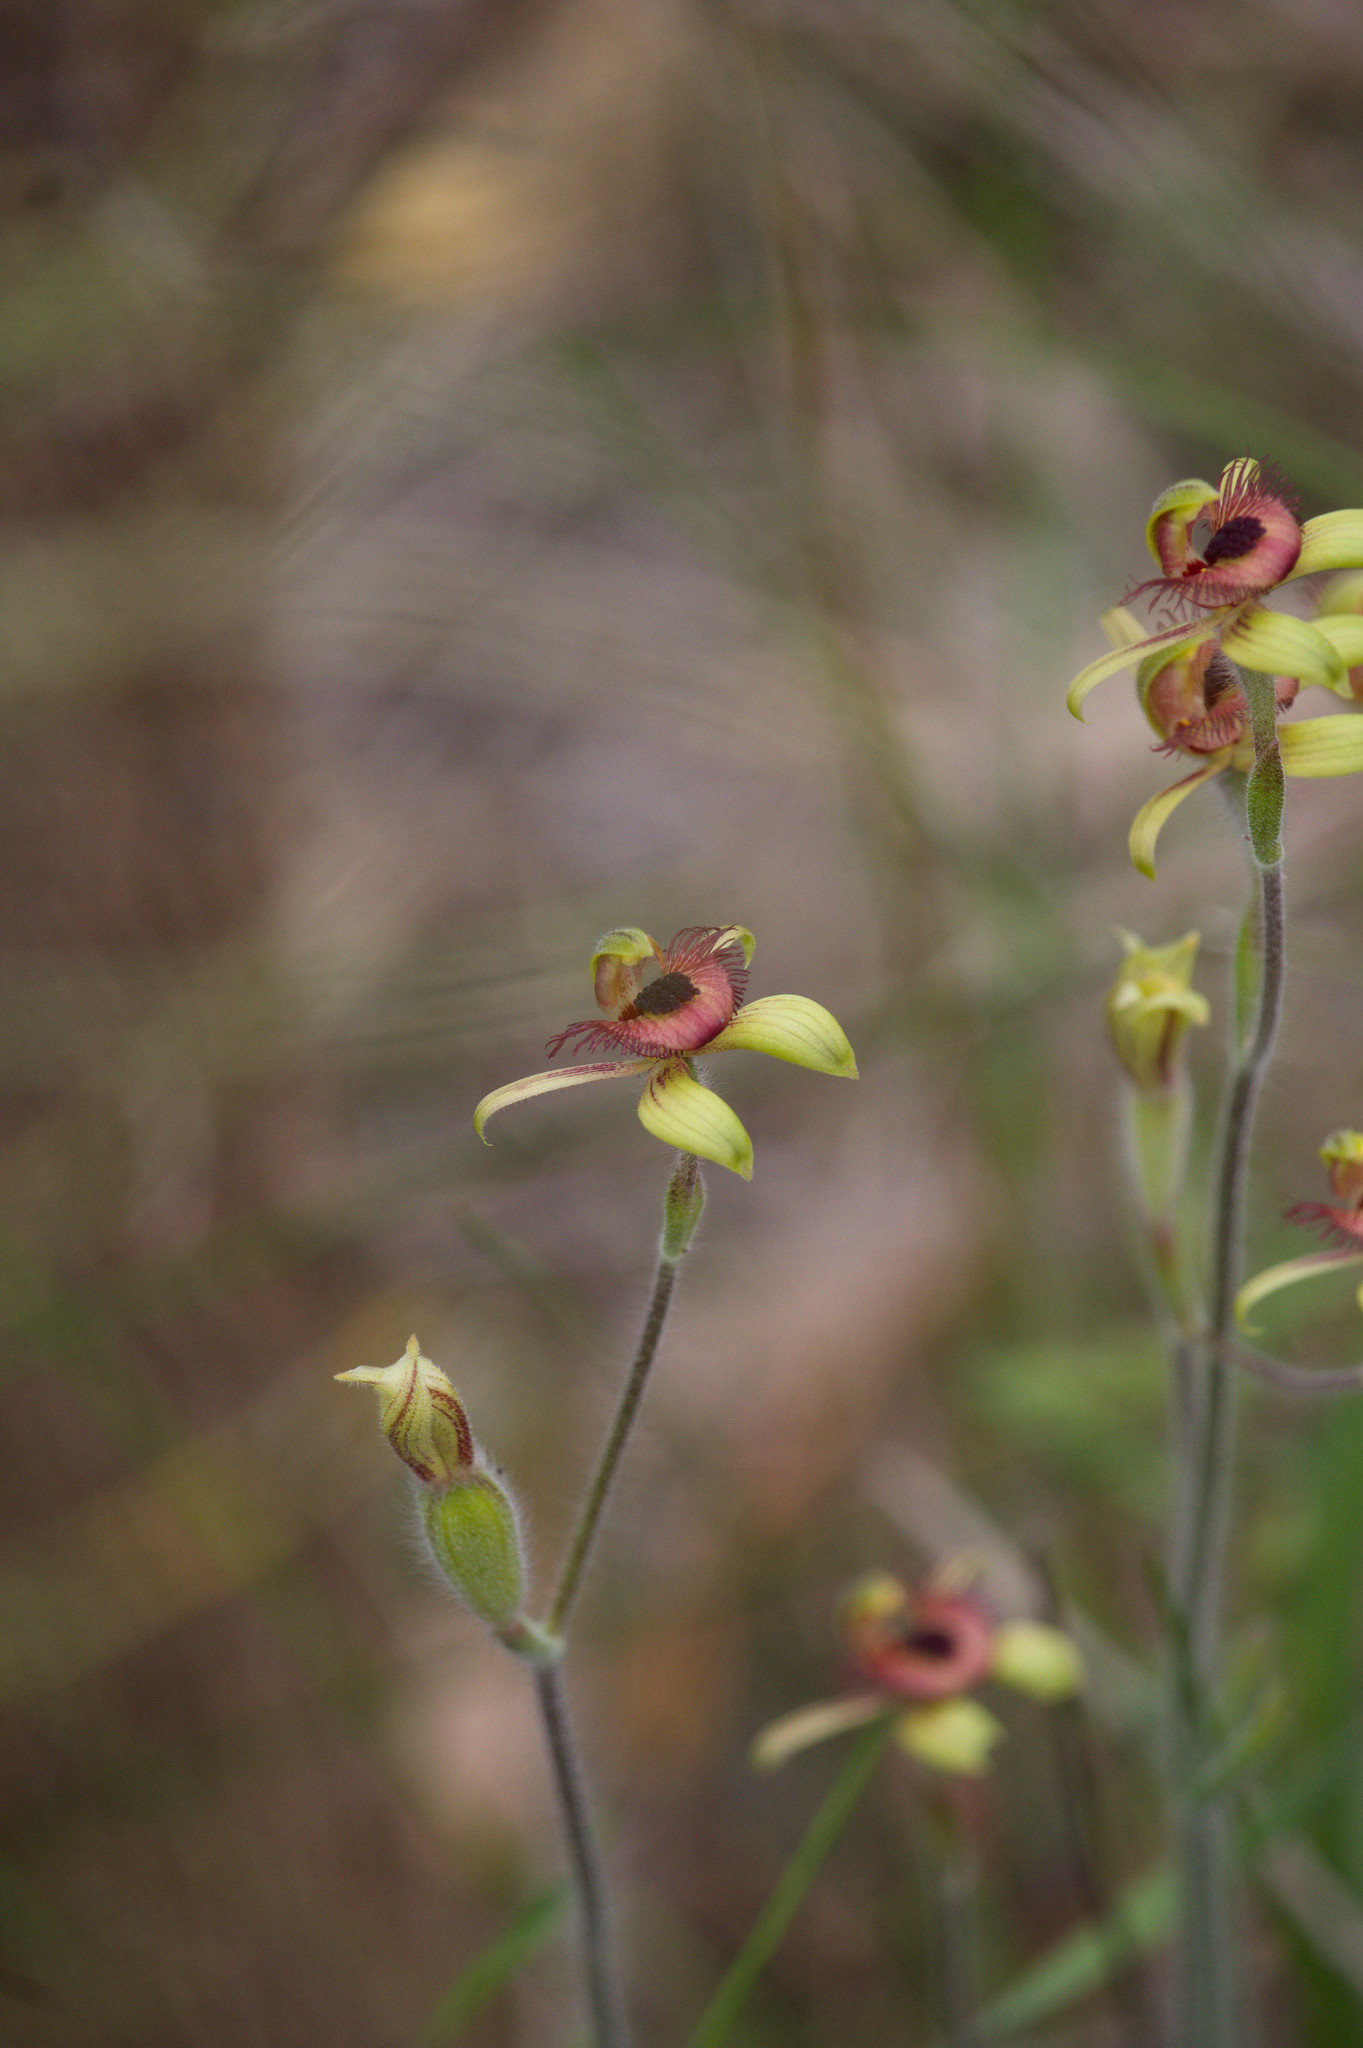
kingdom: Plantae
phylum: Tracheophyta
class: Liliopsida
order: Asparagales
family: Orchidaceae
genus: Caladenia
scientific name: Caladenia discoidea
